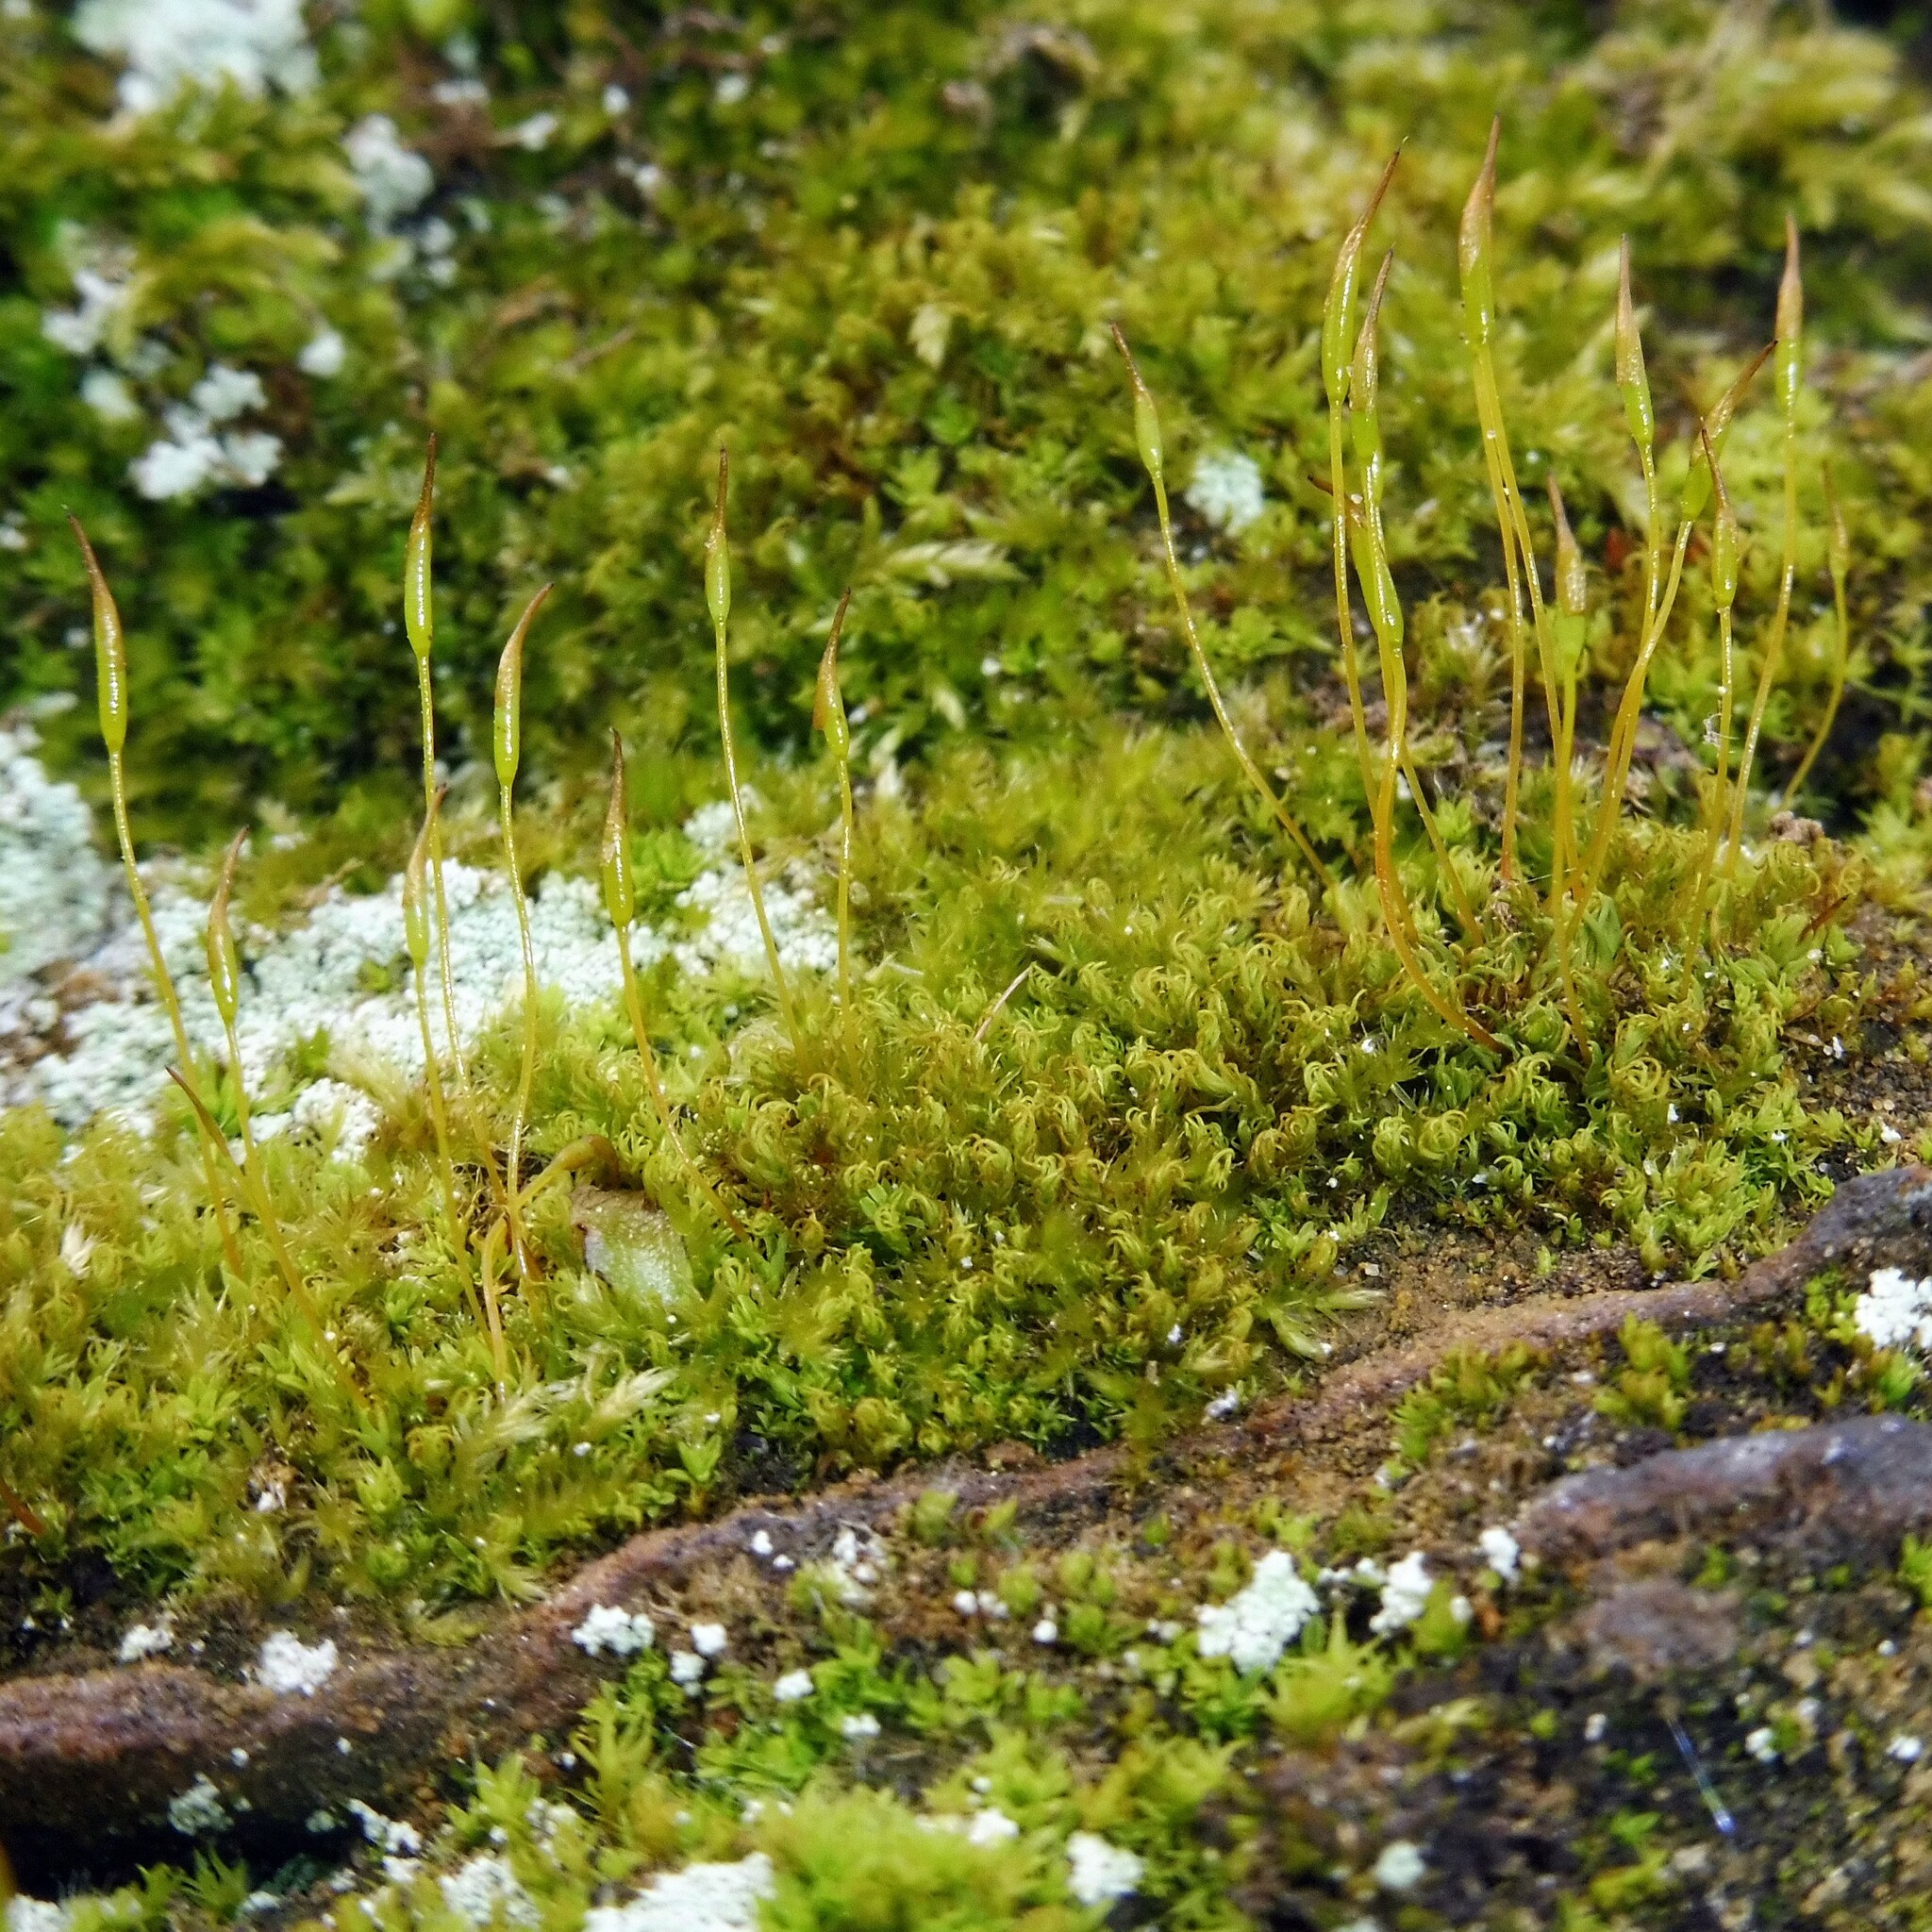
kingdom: Plantae
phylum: Bryophyta
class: Bryopsida
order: Pottiales
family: Pottiaceae
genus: Tortula
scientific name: Tortula muralis
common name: Wall screw-moss
